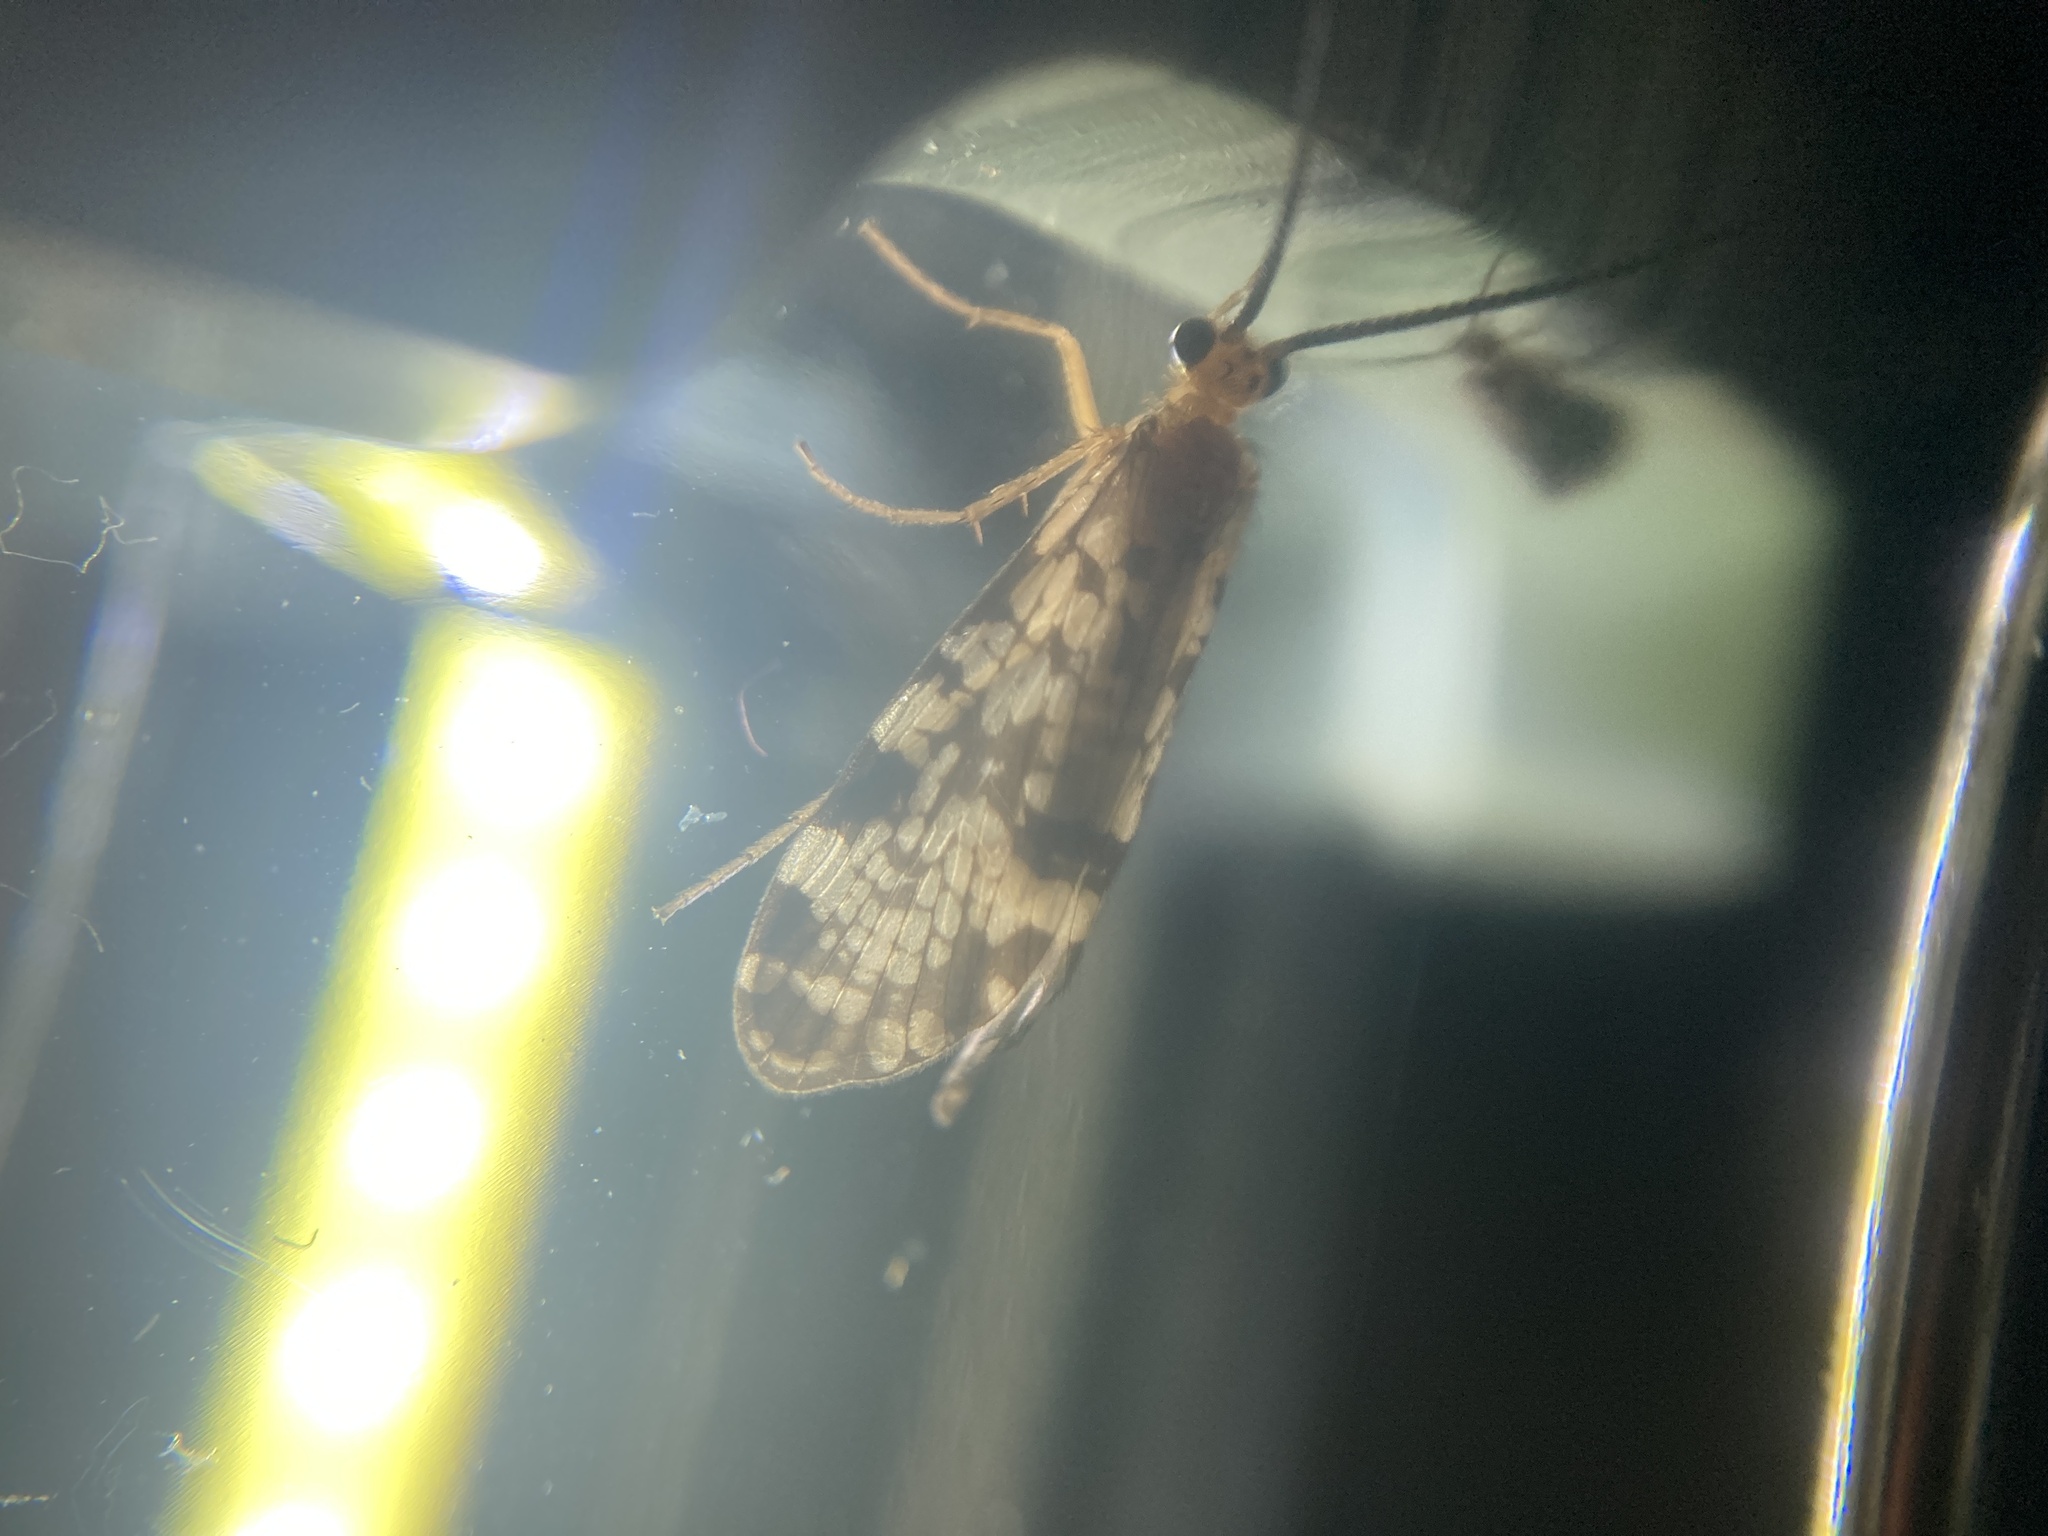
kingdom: Animalia
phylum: Arthropoda
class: Insecta
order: Trichoptera
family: Phryganeidae
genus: Banksiola
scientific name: Banksiola dossuaria
